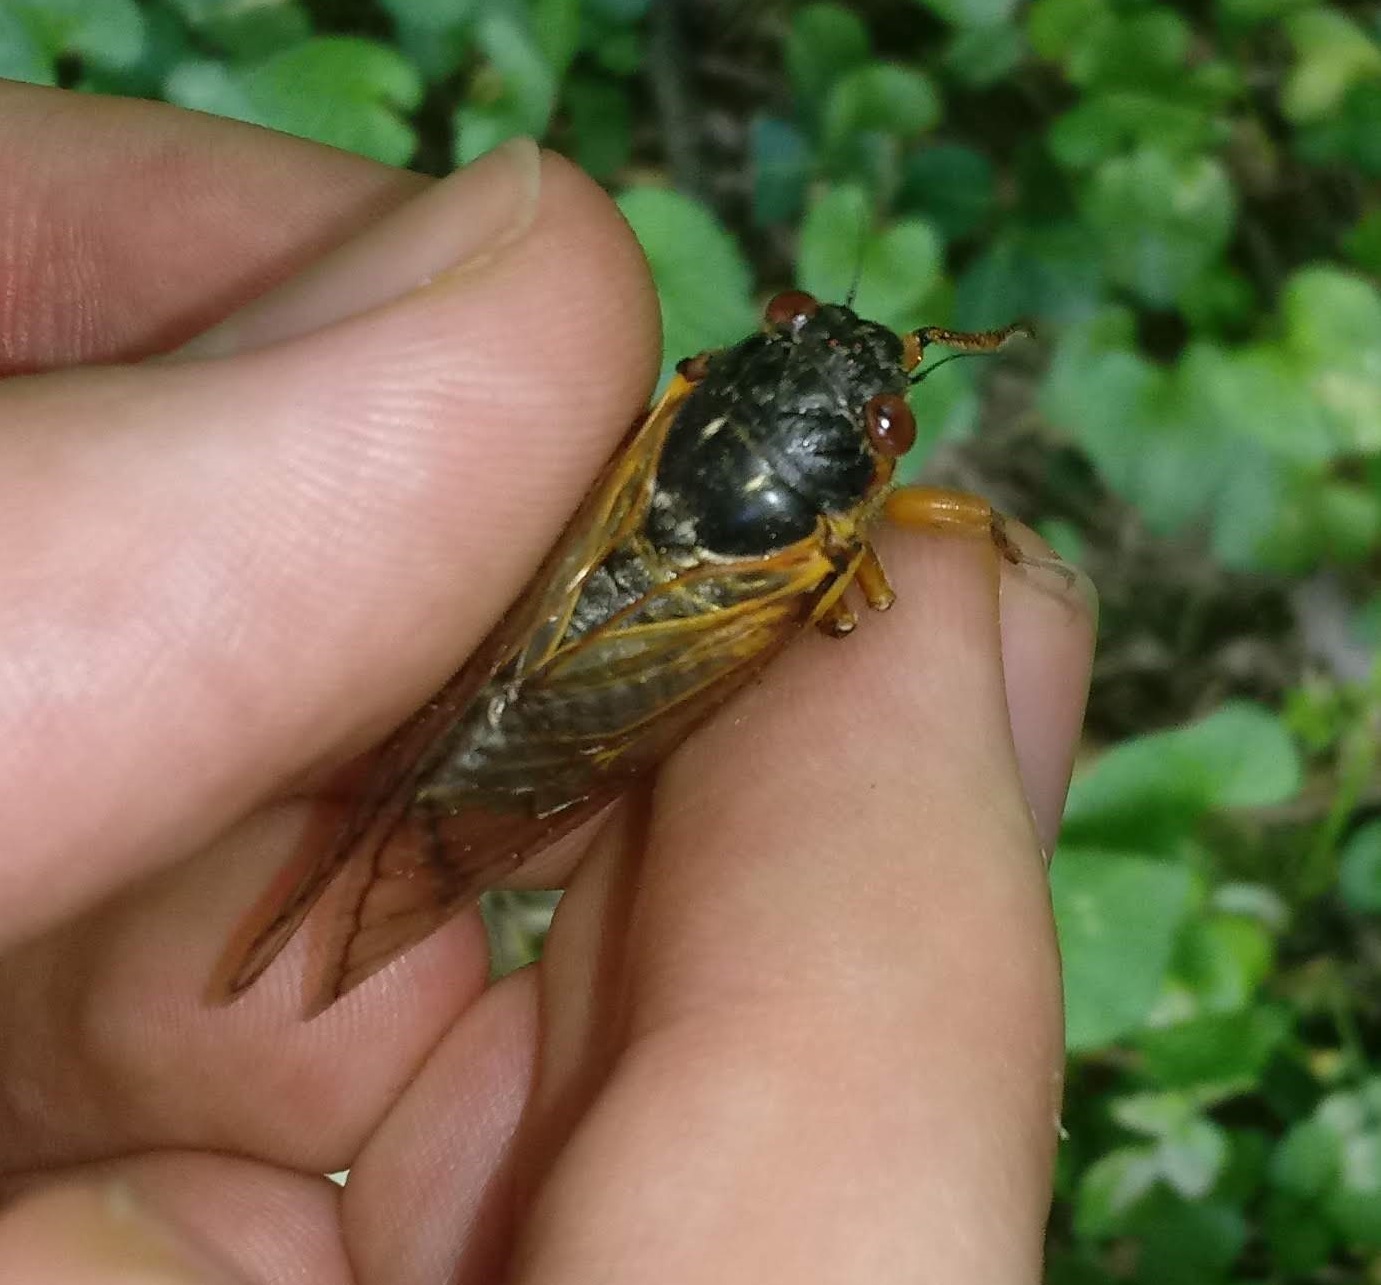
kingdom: Animalia
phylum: Arthropoda
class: Insecta
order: Hemiptera
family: Cicadidae
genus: Magicicada
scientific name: Magicicada septendecim
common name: Periodical cicada
